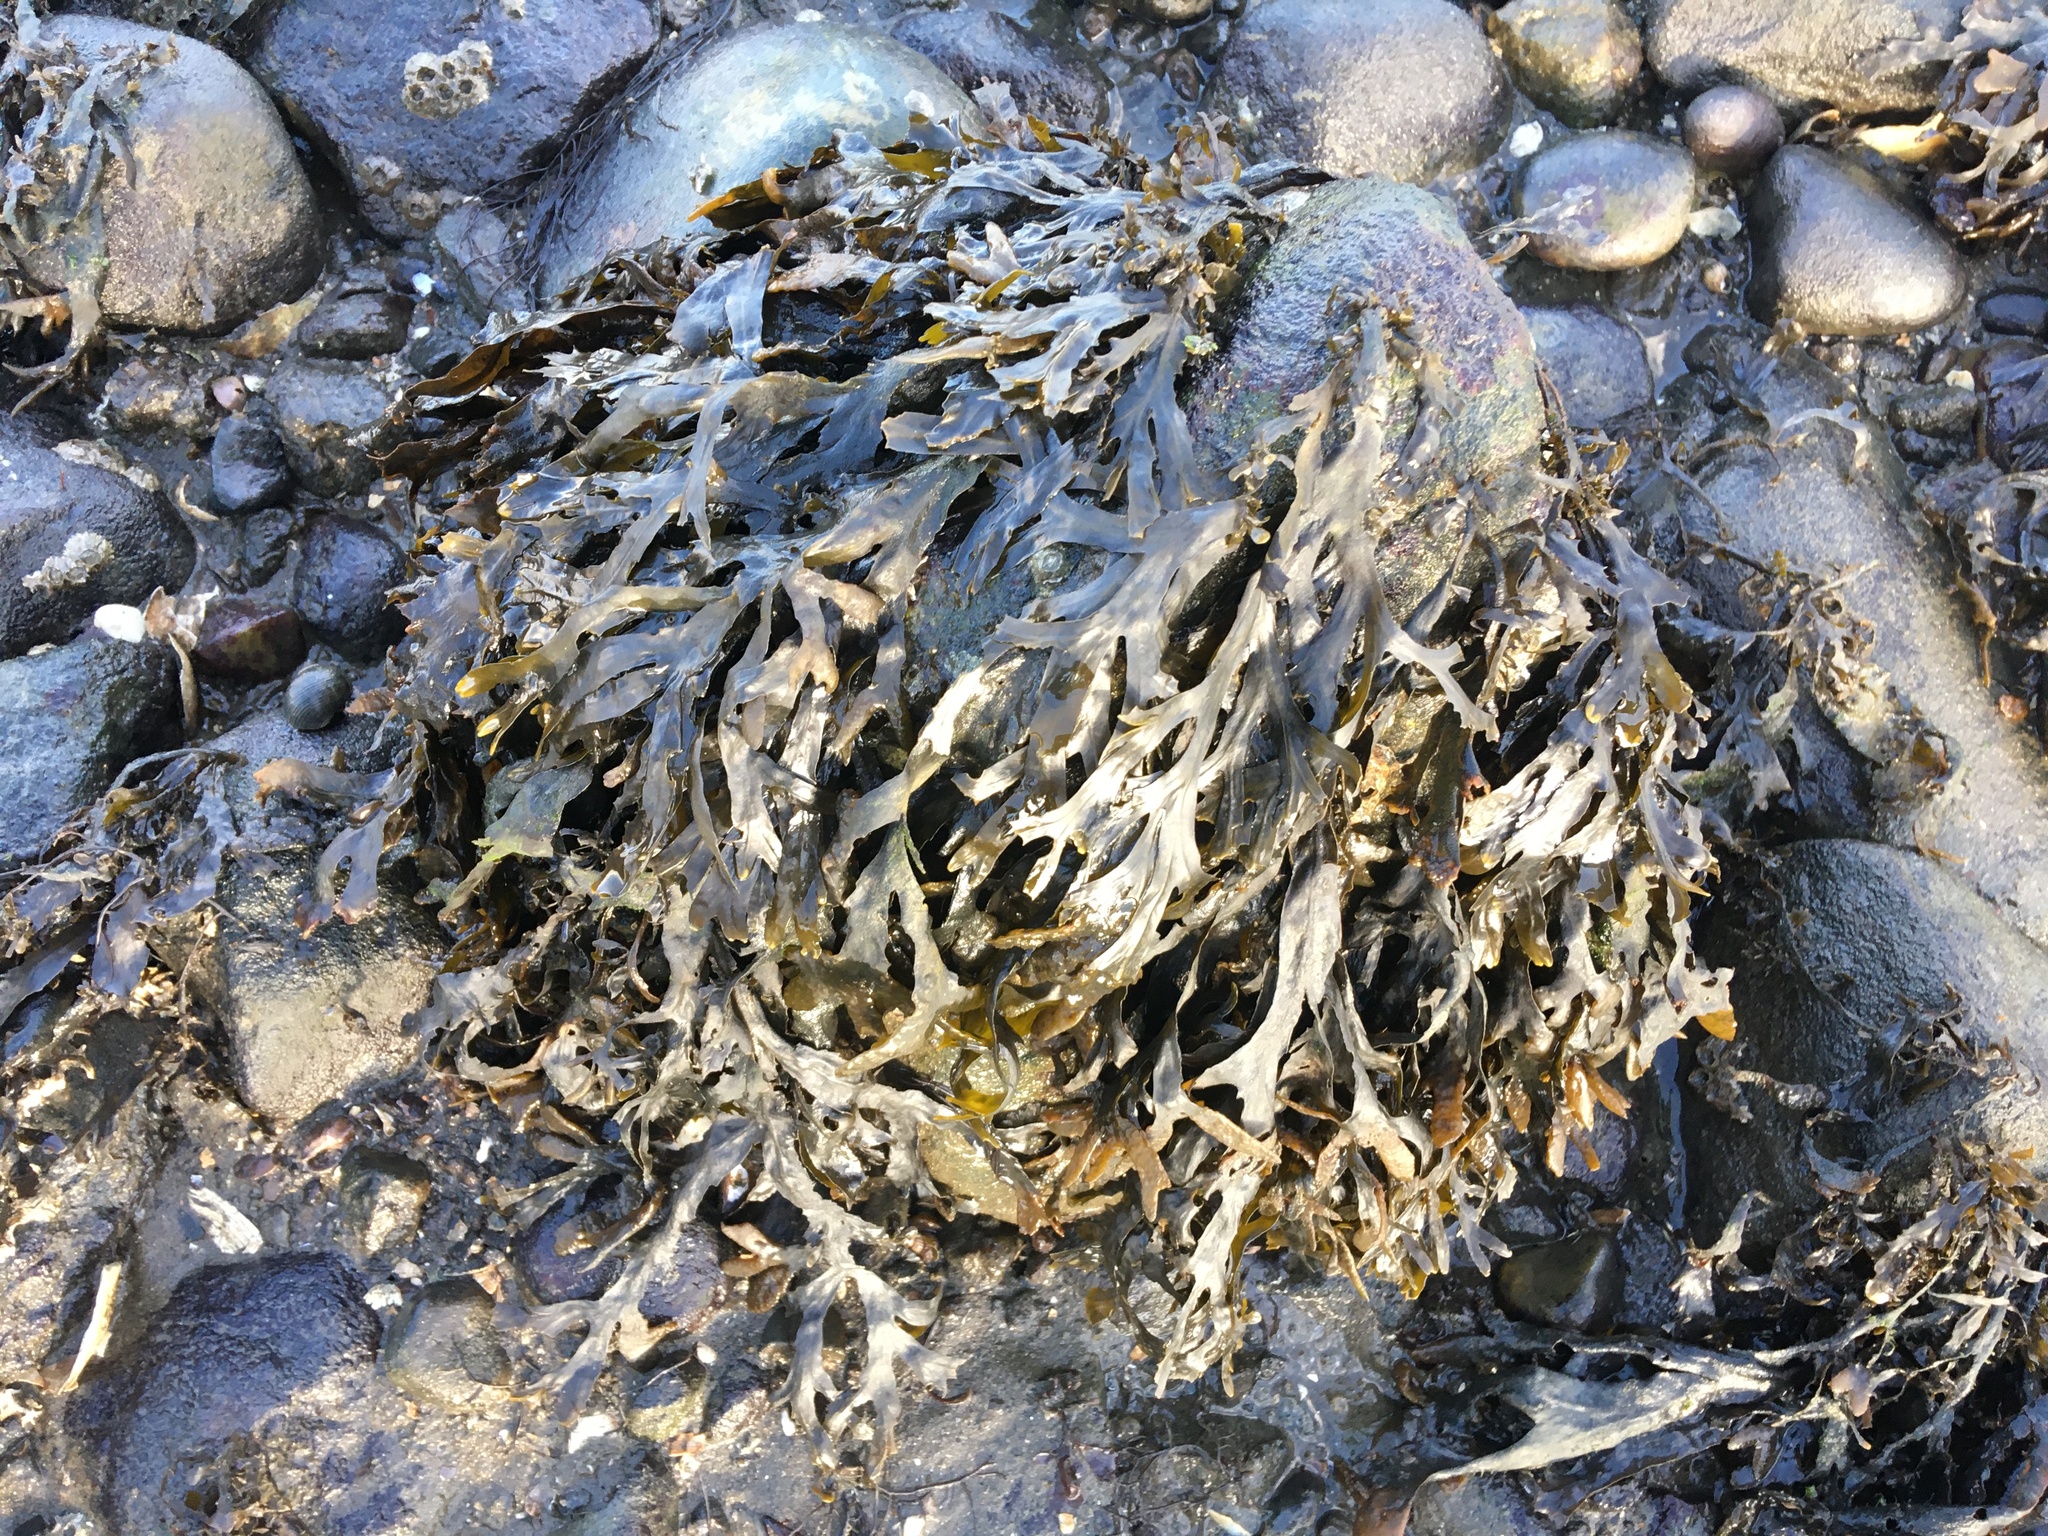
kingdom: Chromista
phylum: Ochrophyta
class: Phaeophyceae
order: Fucales
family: Fucaceae
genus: Fucus
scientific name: Fucus vesiculosus
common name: Bladder wrack
